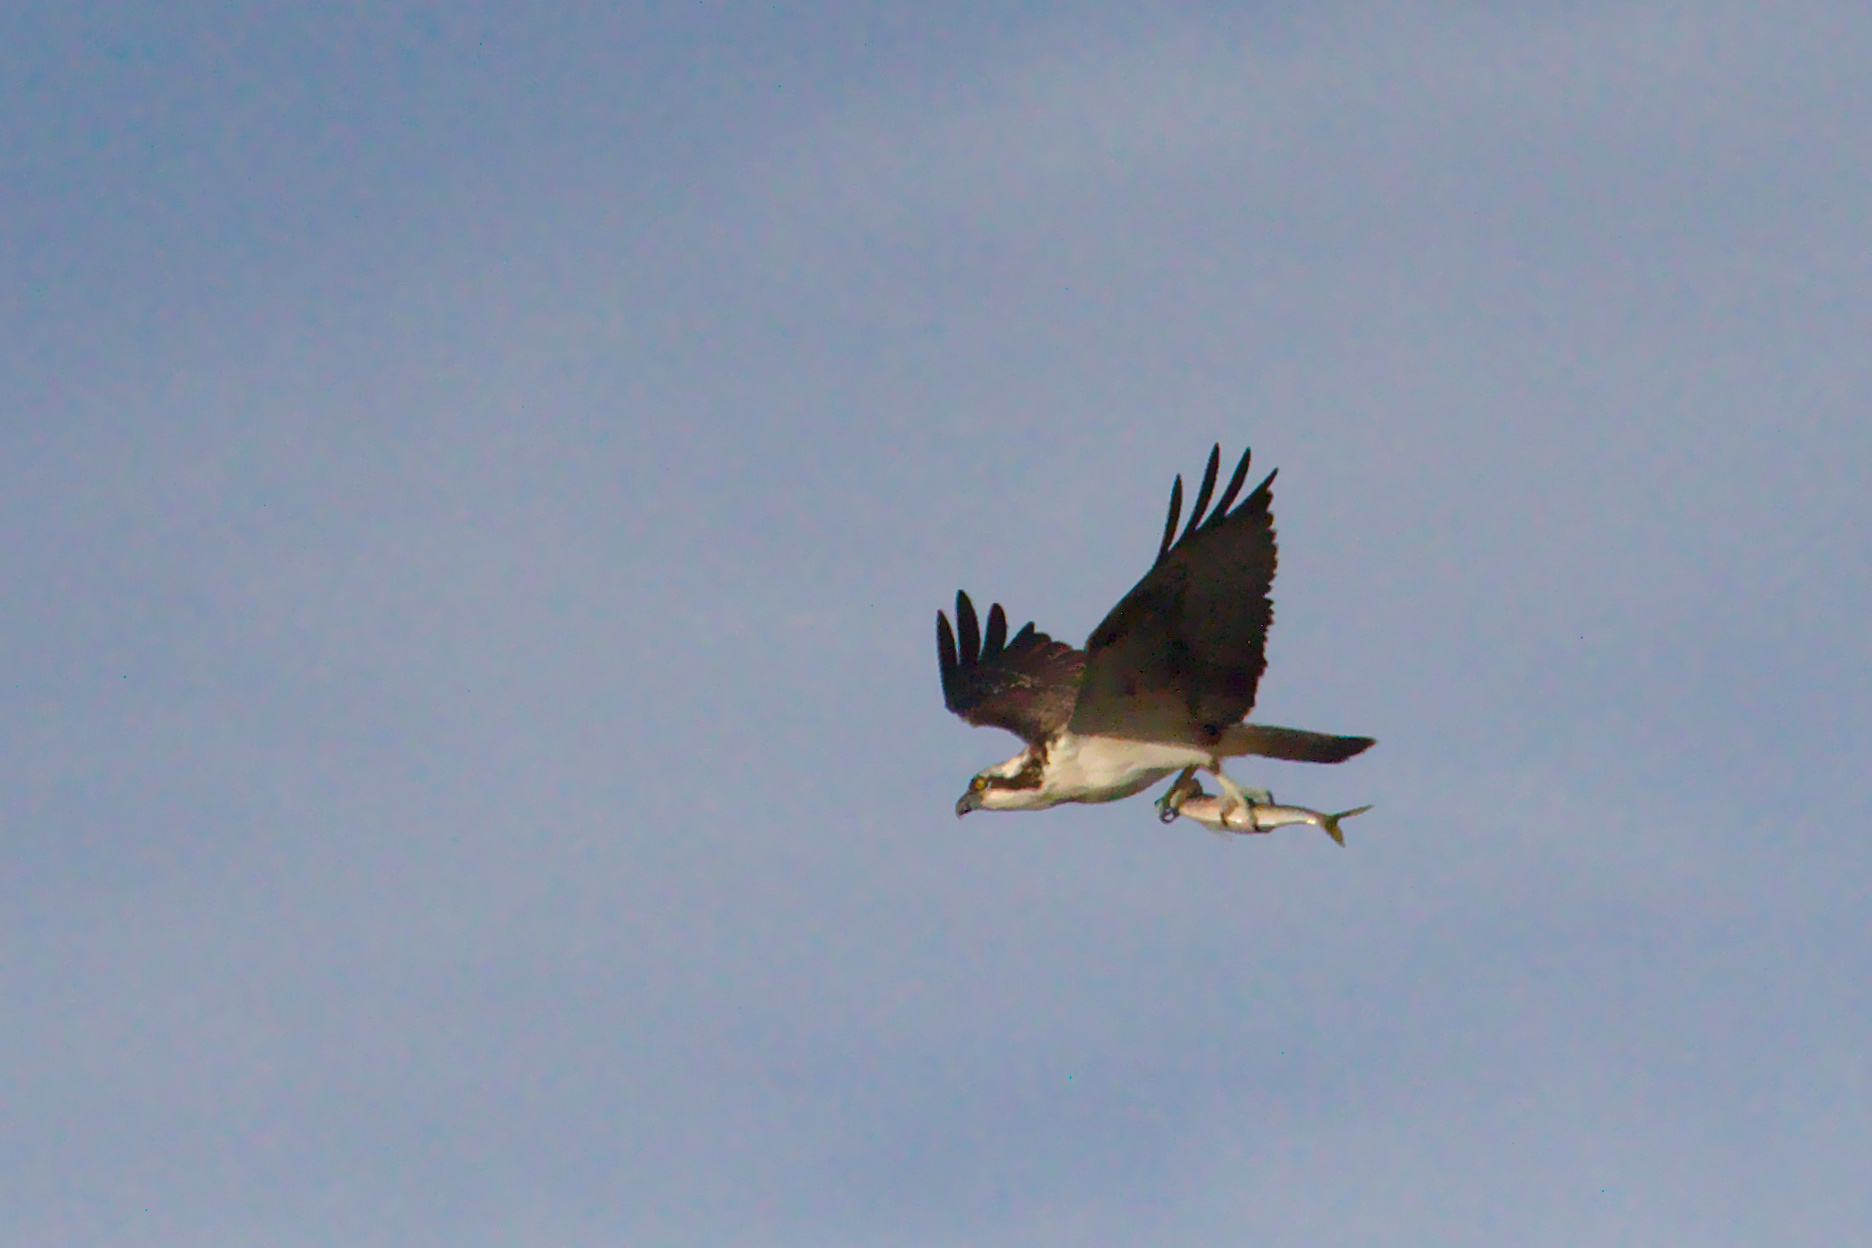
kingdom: Animalia
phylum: Chordata
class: Aves
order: Accipitriformes
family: Pandionidae
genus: Pandion
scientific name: Pandion haliaetus
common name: Osprey
